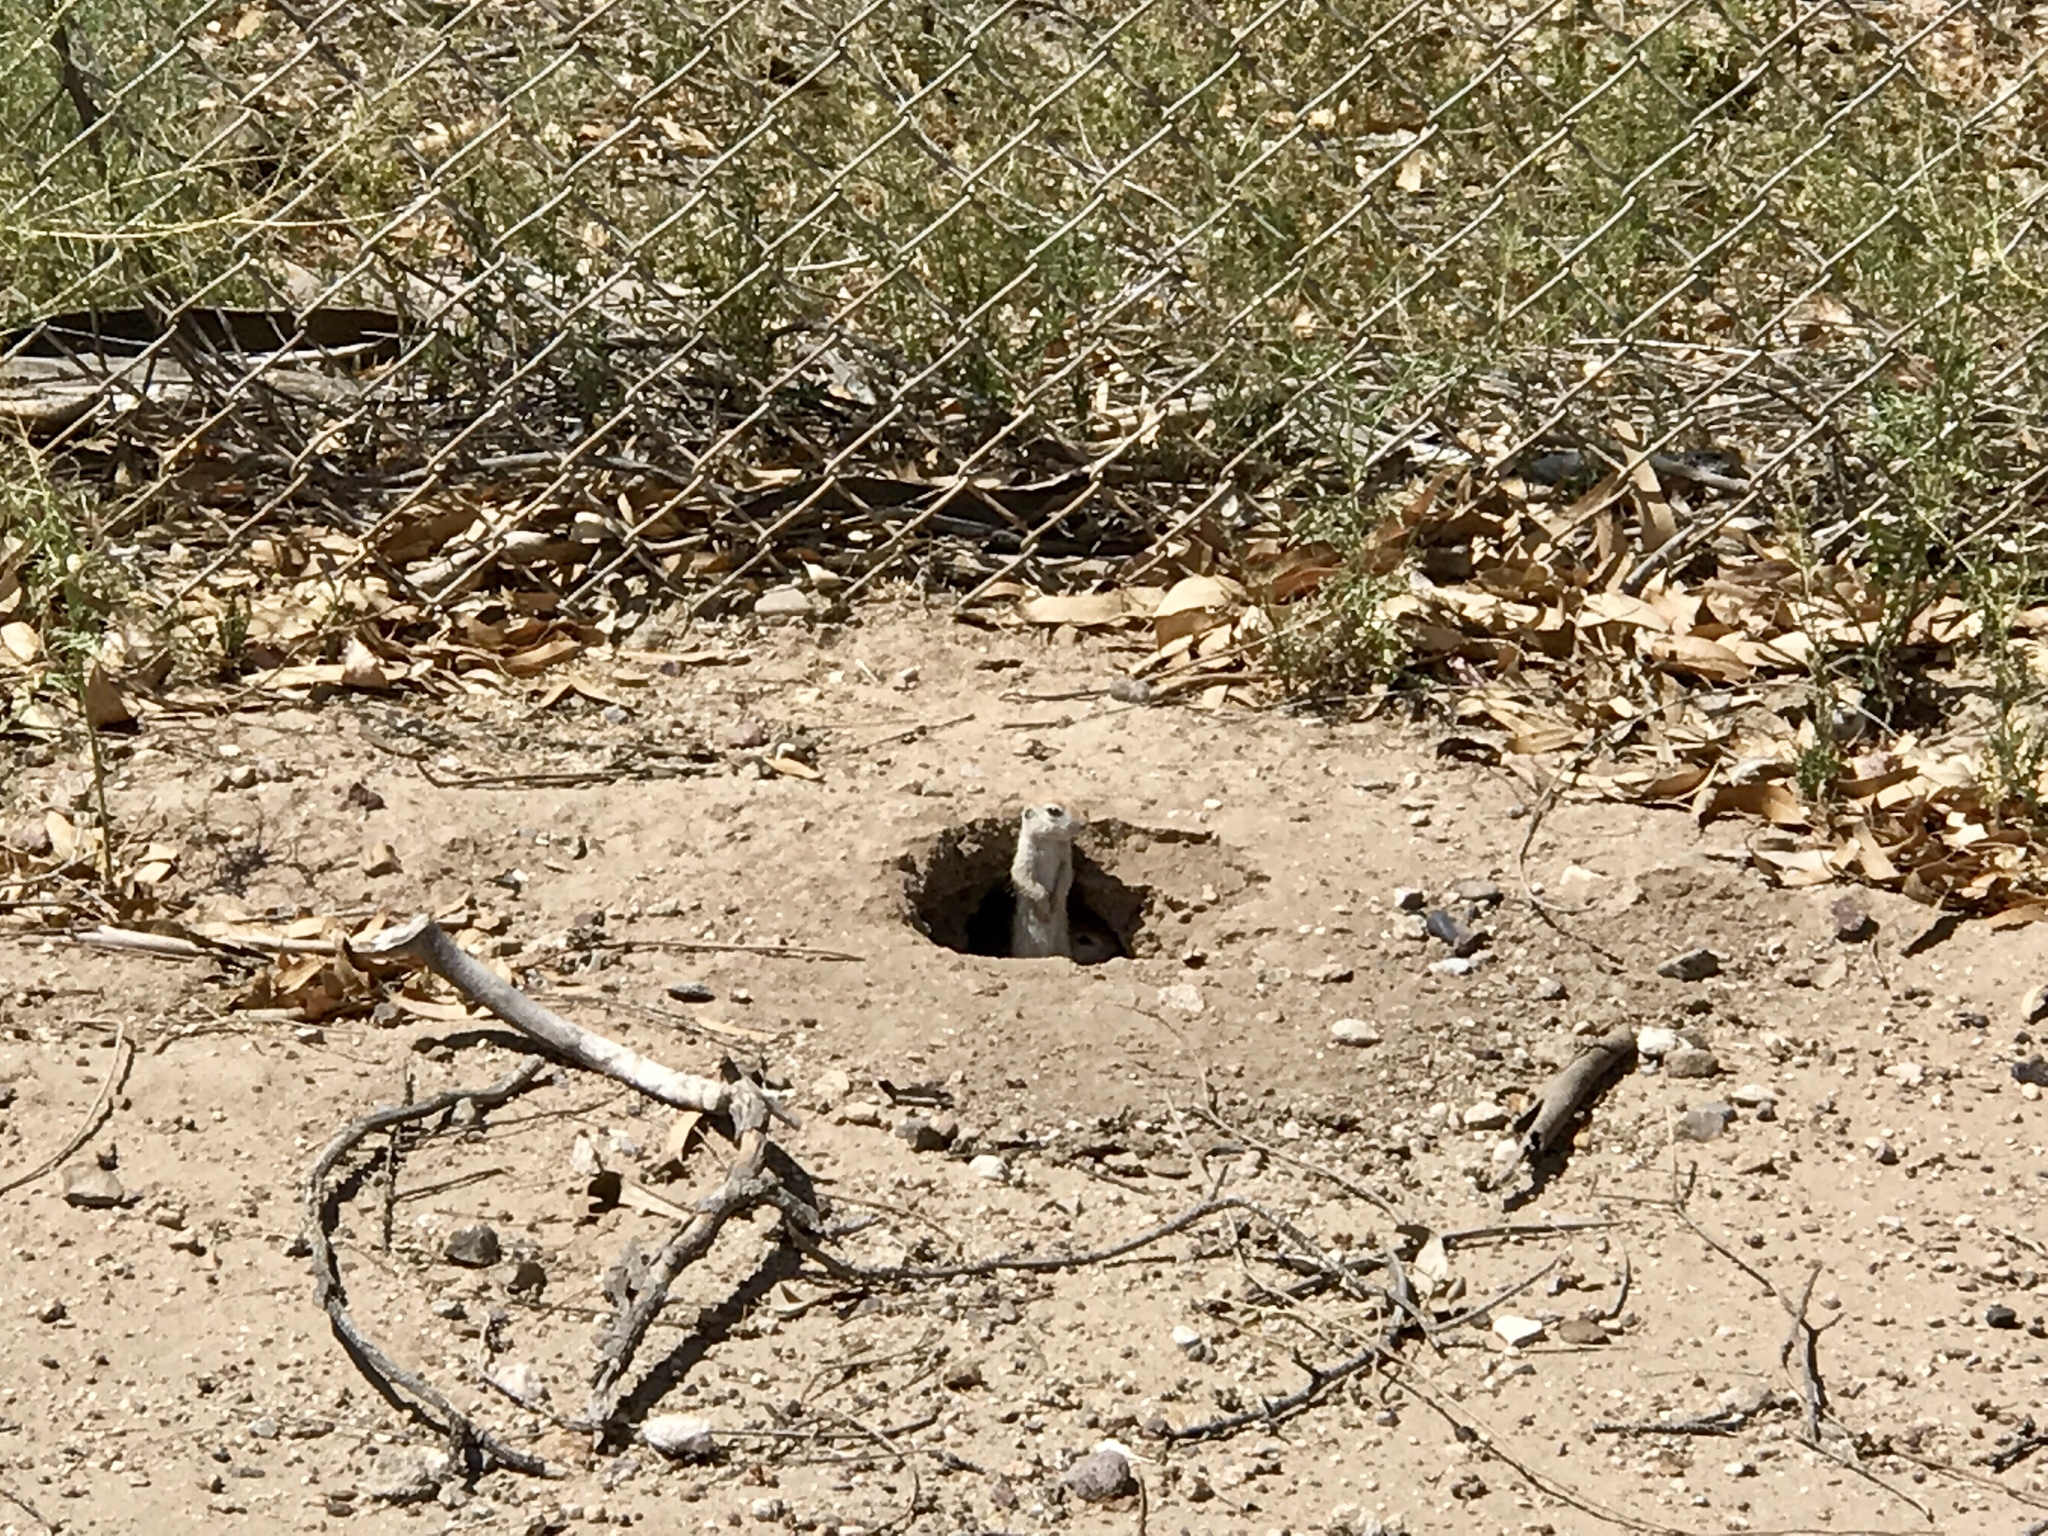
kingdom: Animalia
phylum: Chordata
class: Mammalia
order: Rodentia
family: Sciuridae
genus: Xerospermophilus
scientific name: Xerospermophilus tereticaudus
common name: Round-tailed ground squirrel
